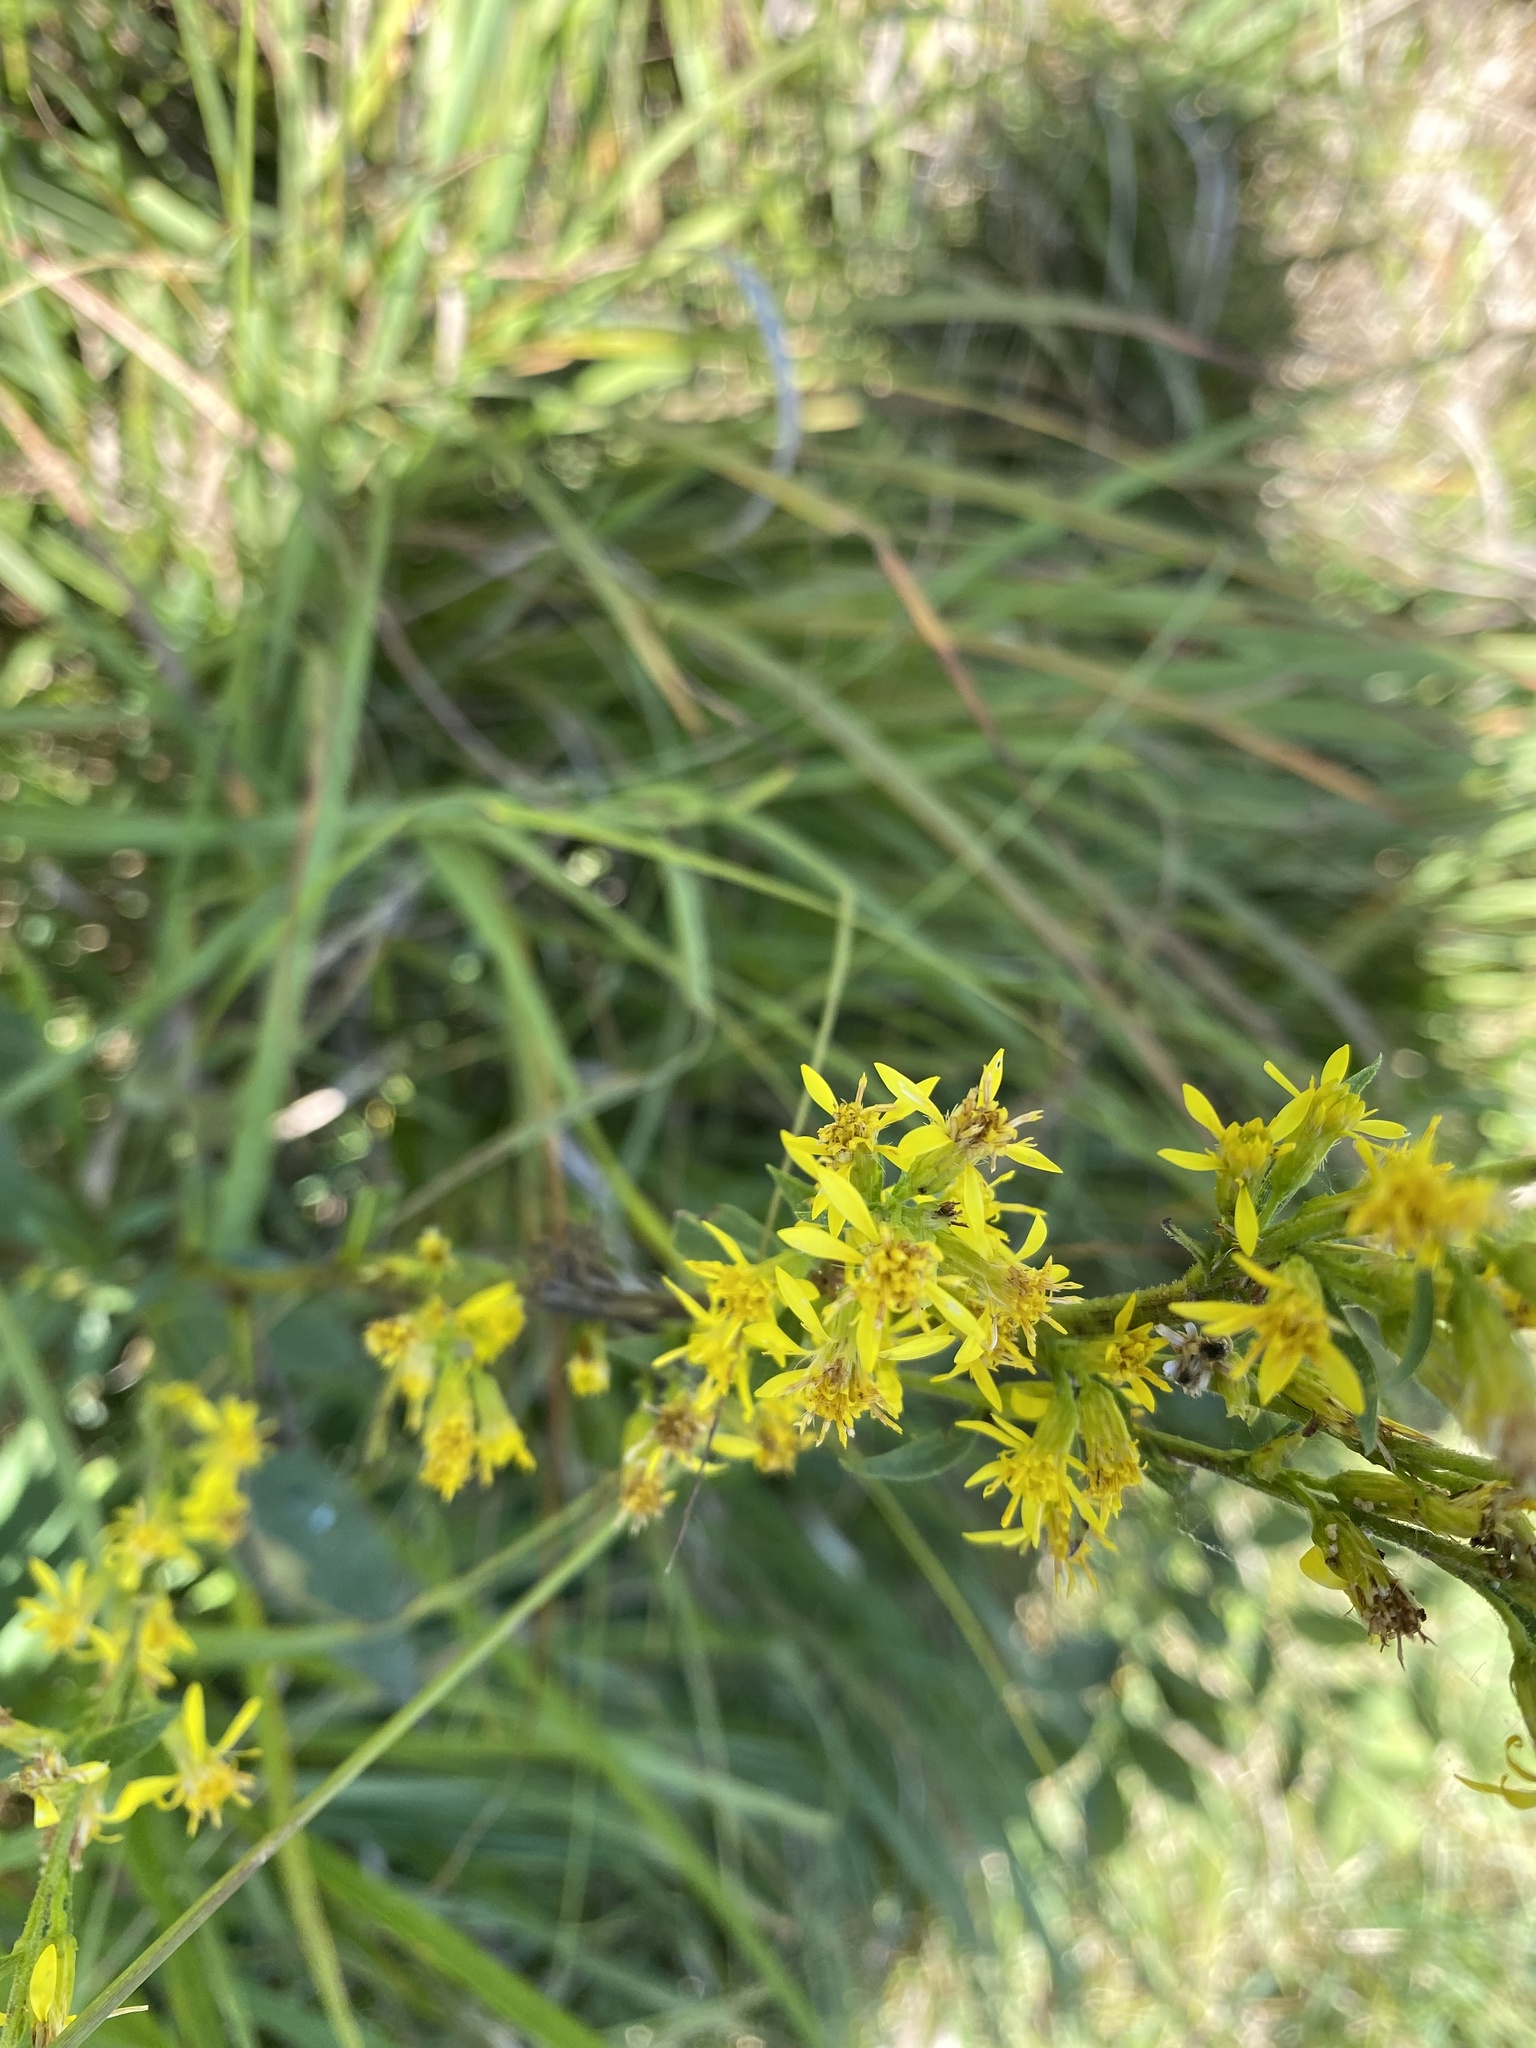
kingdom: Plantae
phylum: Tracheophyta
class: Magnoliopsida
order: Asterales
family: Asteraceae
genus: Solidago
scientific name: Solidago virgaurea
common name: Goldenrod
